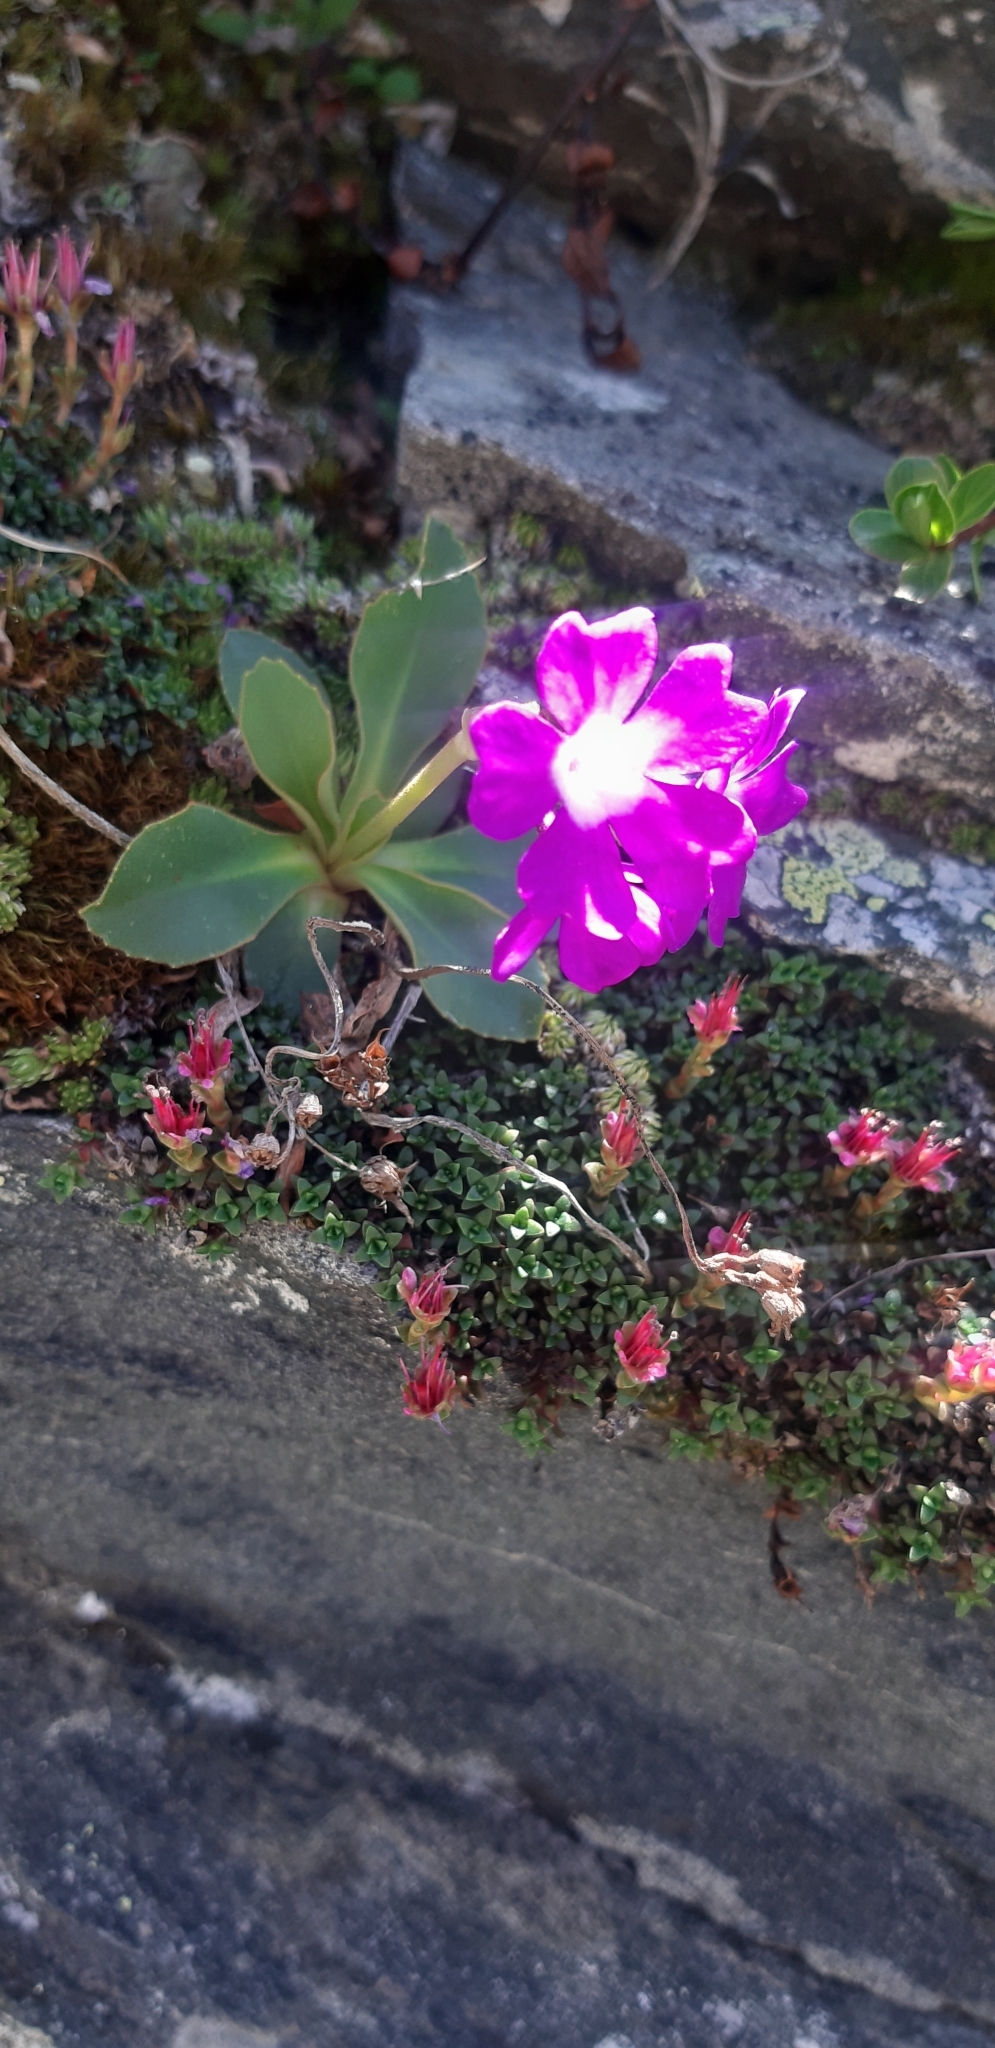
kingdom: Plantae
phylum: Tracheophyta
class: Magnoliopsida
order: Ericales
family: Primulaceae
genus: Primula
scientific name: Primula pedemontana
